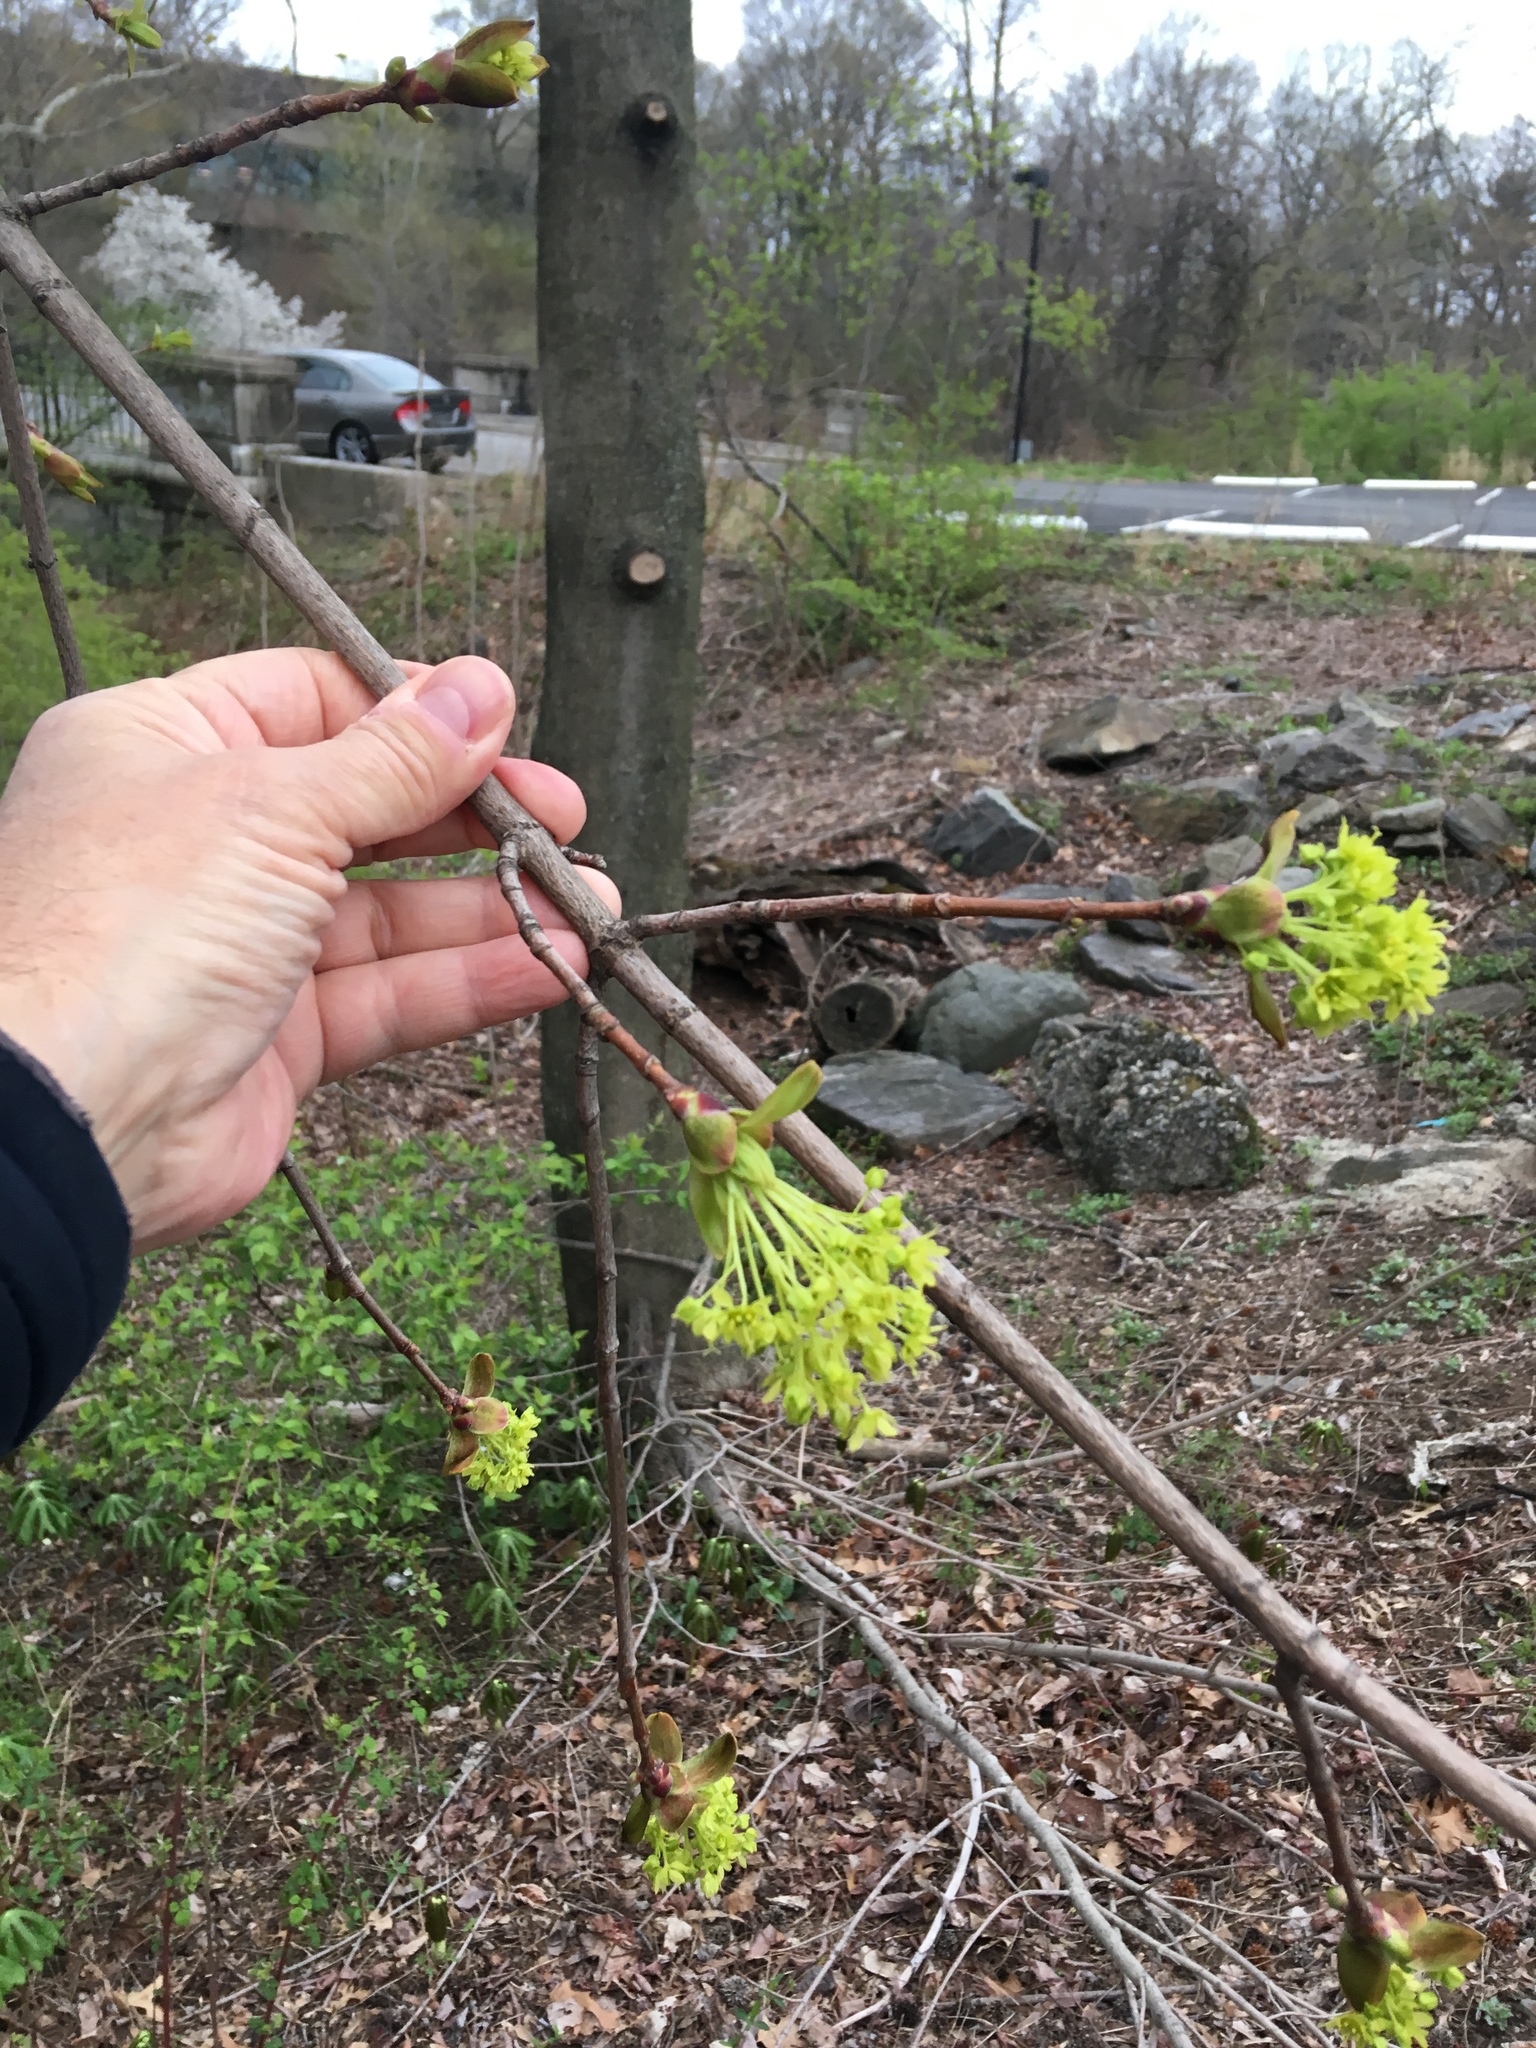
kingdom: Plantae
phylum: Tracheophyta
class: Magnoliopsida
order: Sapindales
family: Sapindaceae
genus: Acer
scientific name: Acer platanoides
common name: Norway maple
